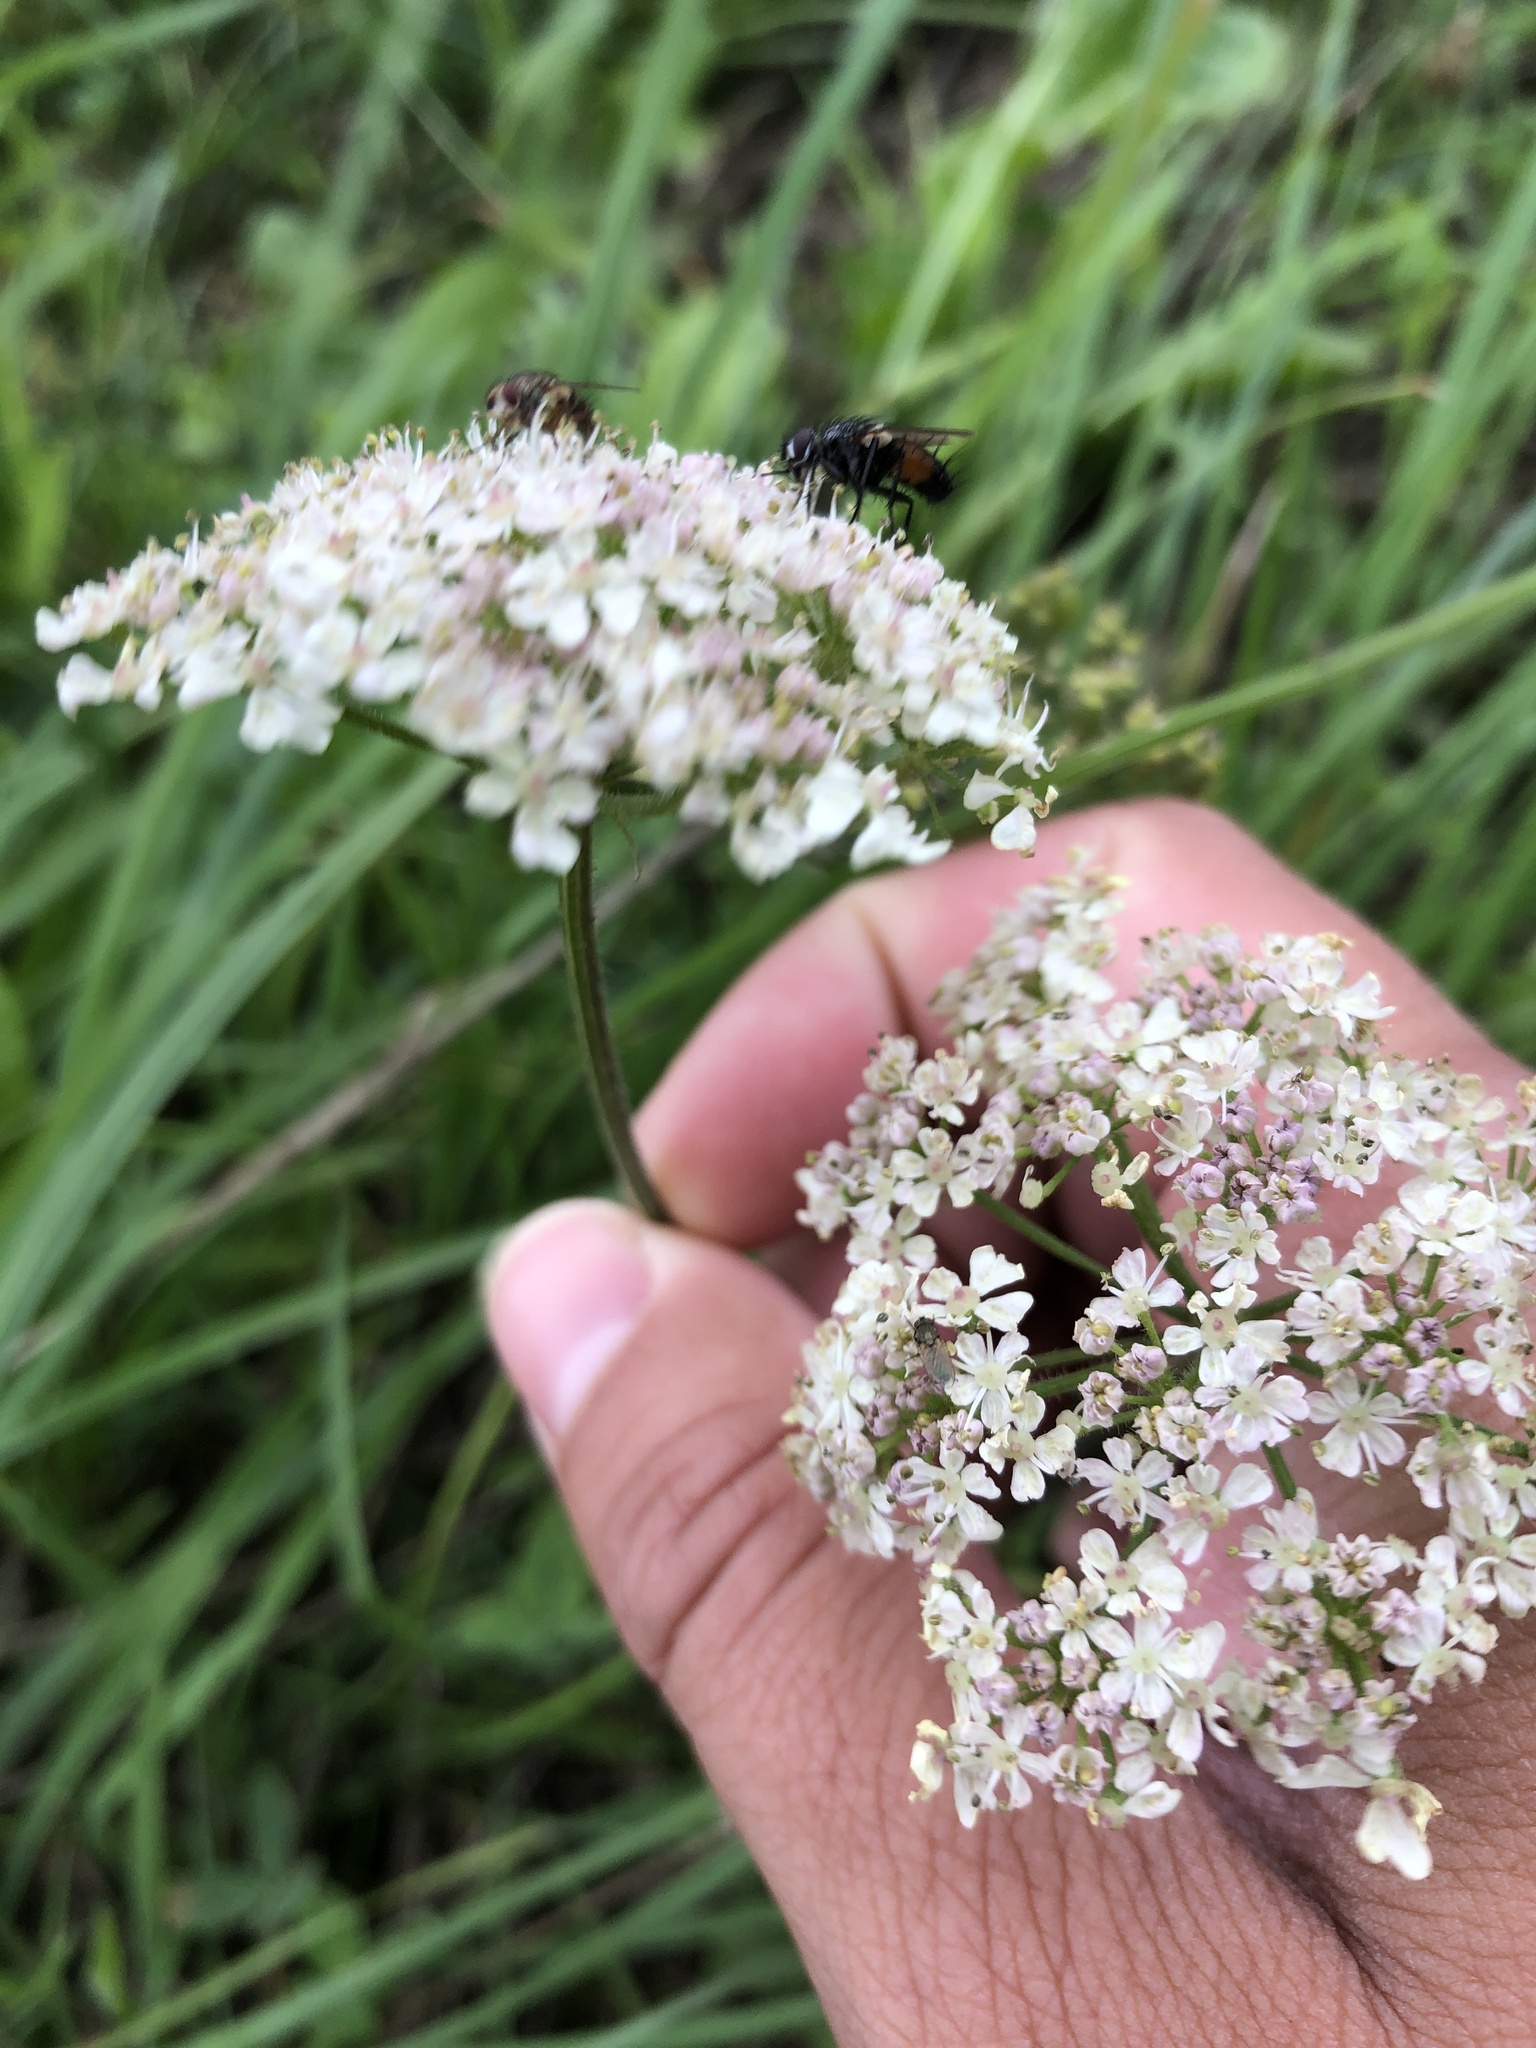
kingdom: Plantae
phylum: Tracheophyta
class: Magnoliopsida
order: Apiales
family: Apiaceae
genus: Heracleum
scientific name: Heracleum sphondylium
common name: Hogweed
